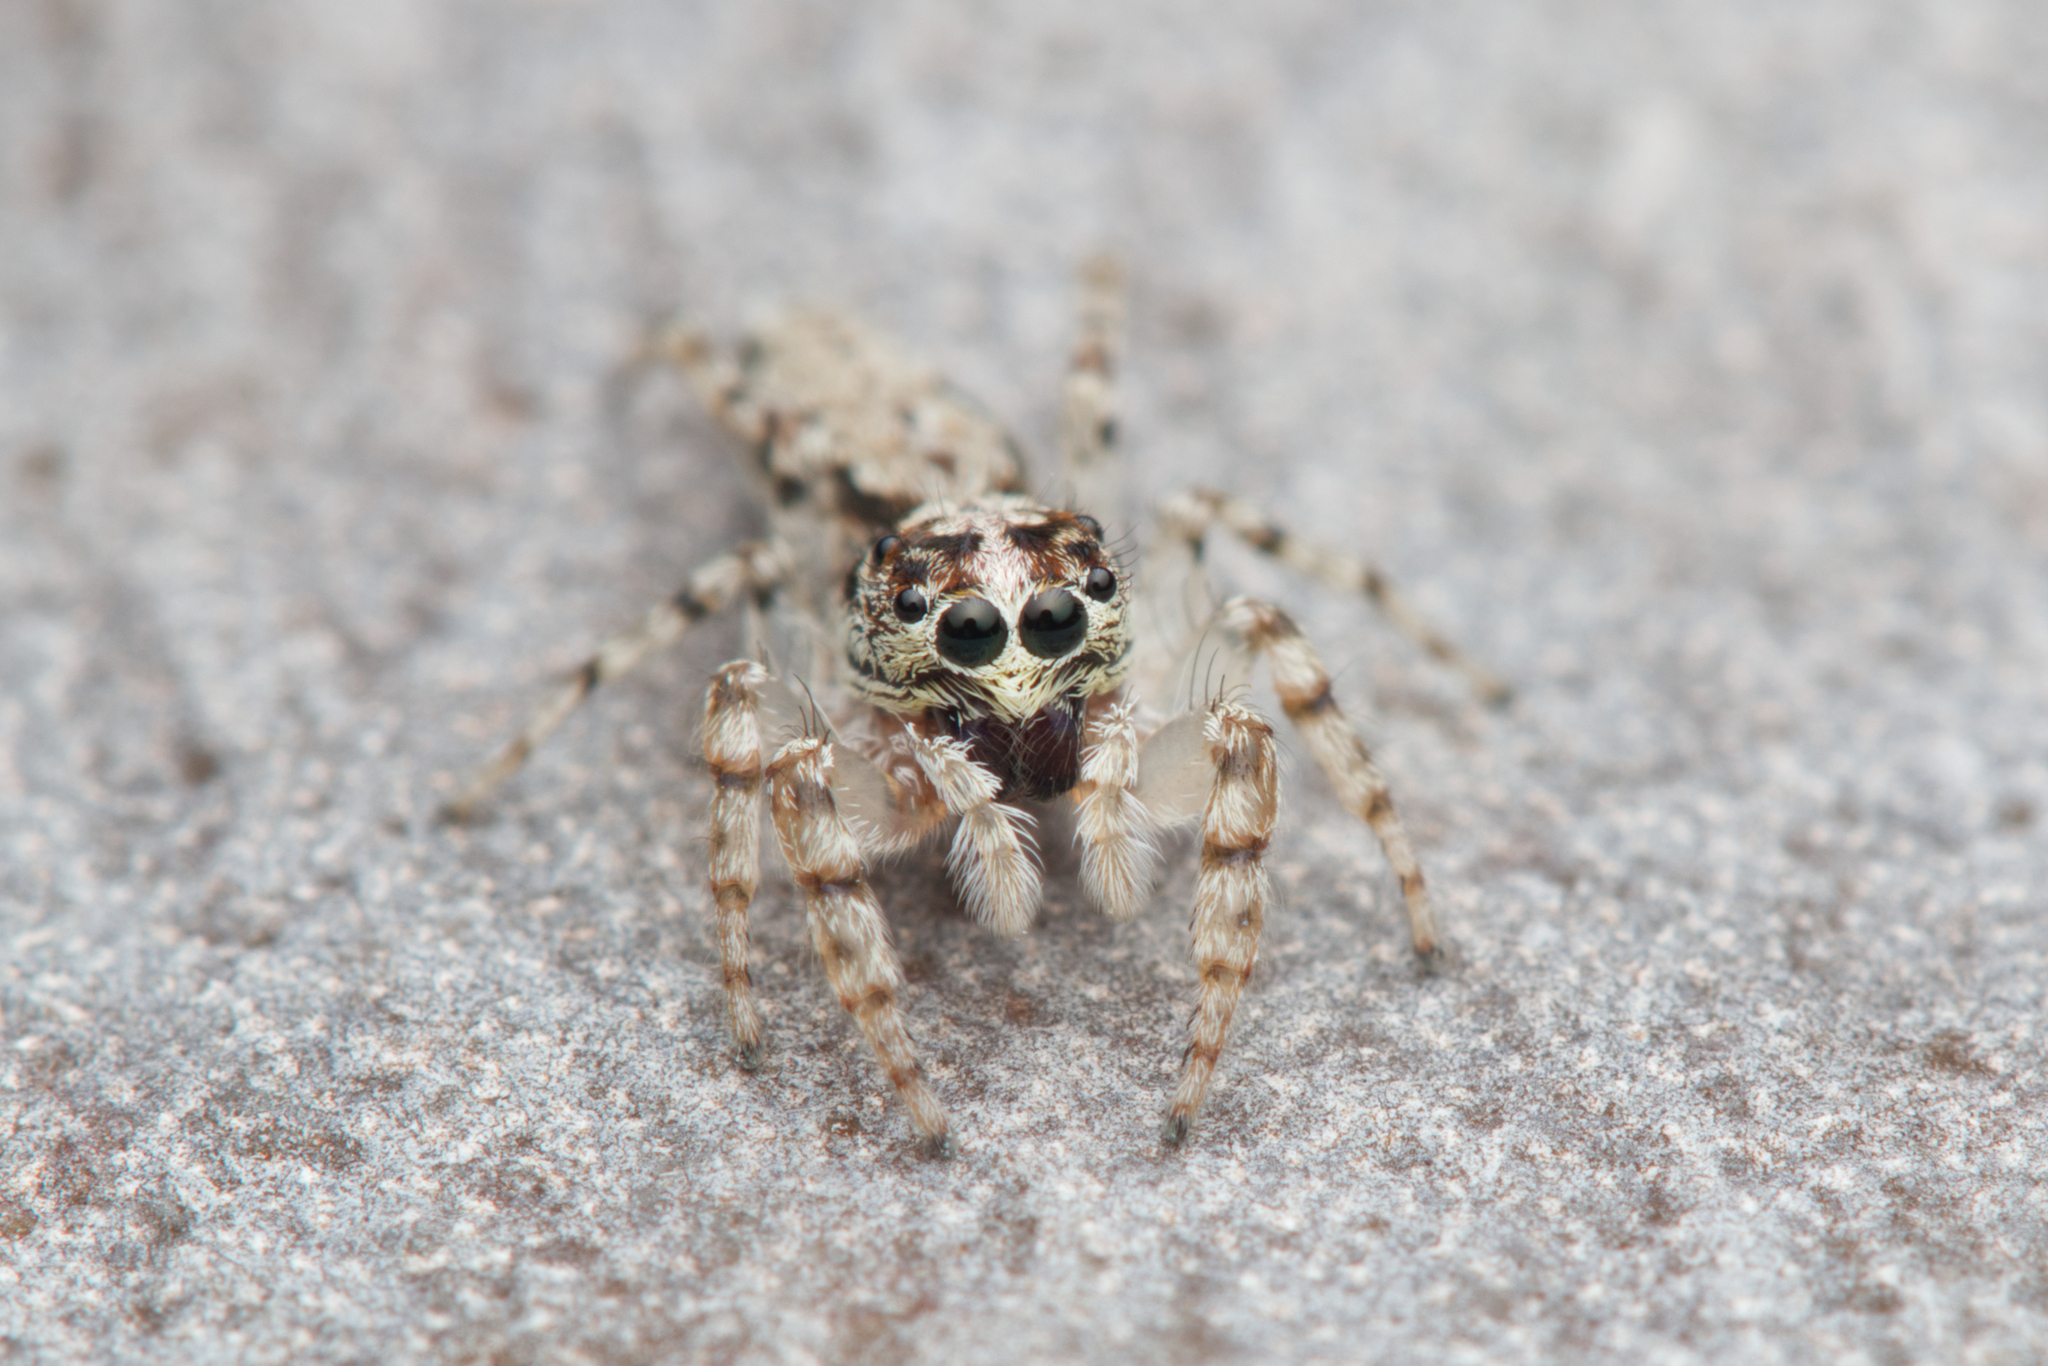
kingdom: Animalia
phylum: Arthropoda
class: Arachnida
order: Araneae
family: Salticidae
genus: Apricia
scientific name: Apricia bracteata
